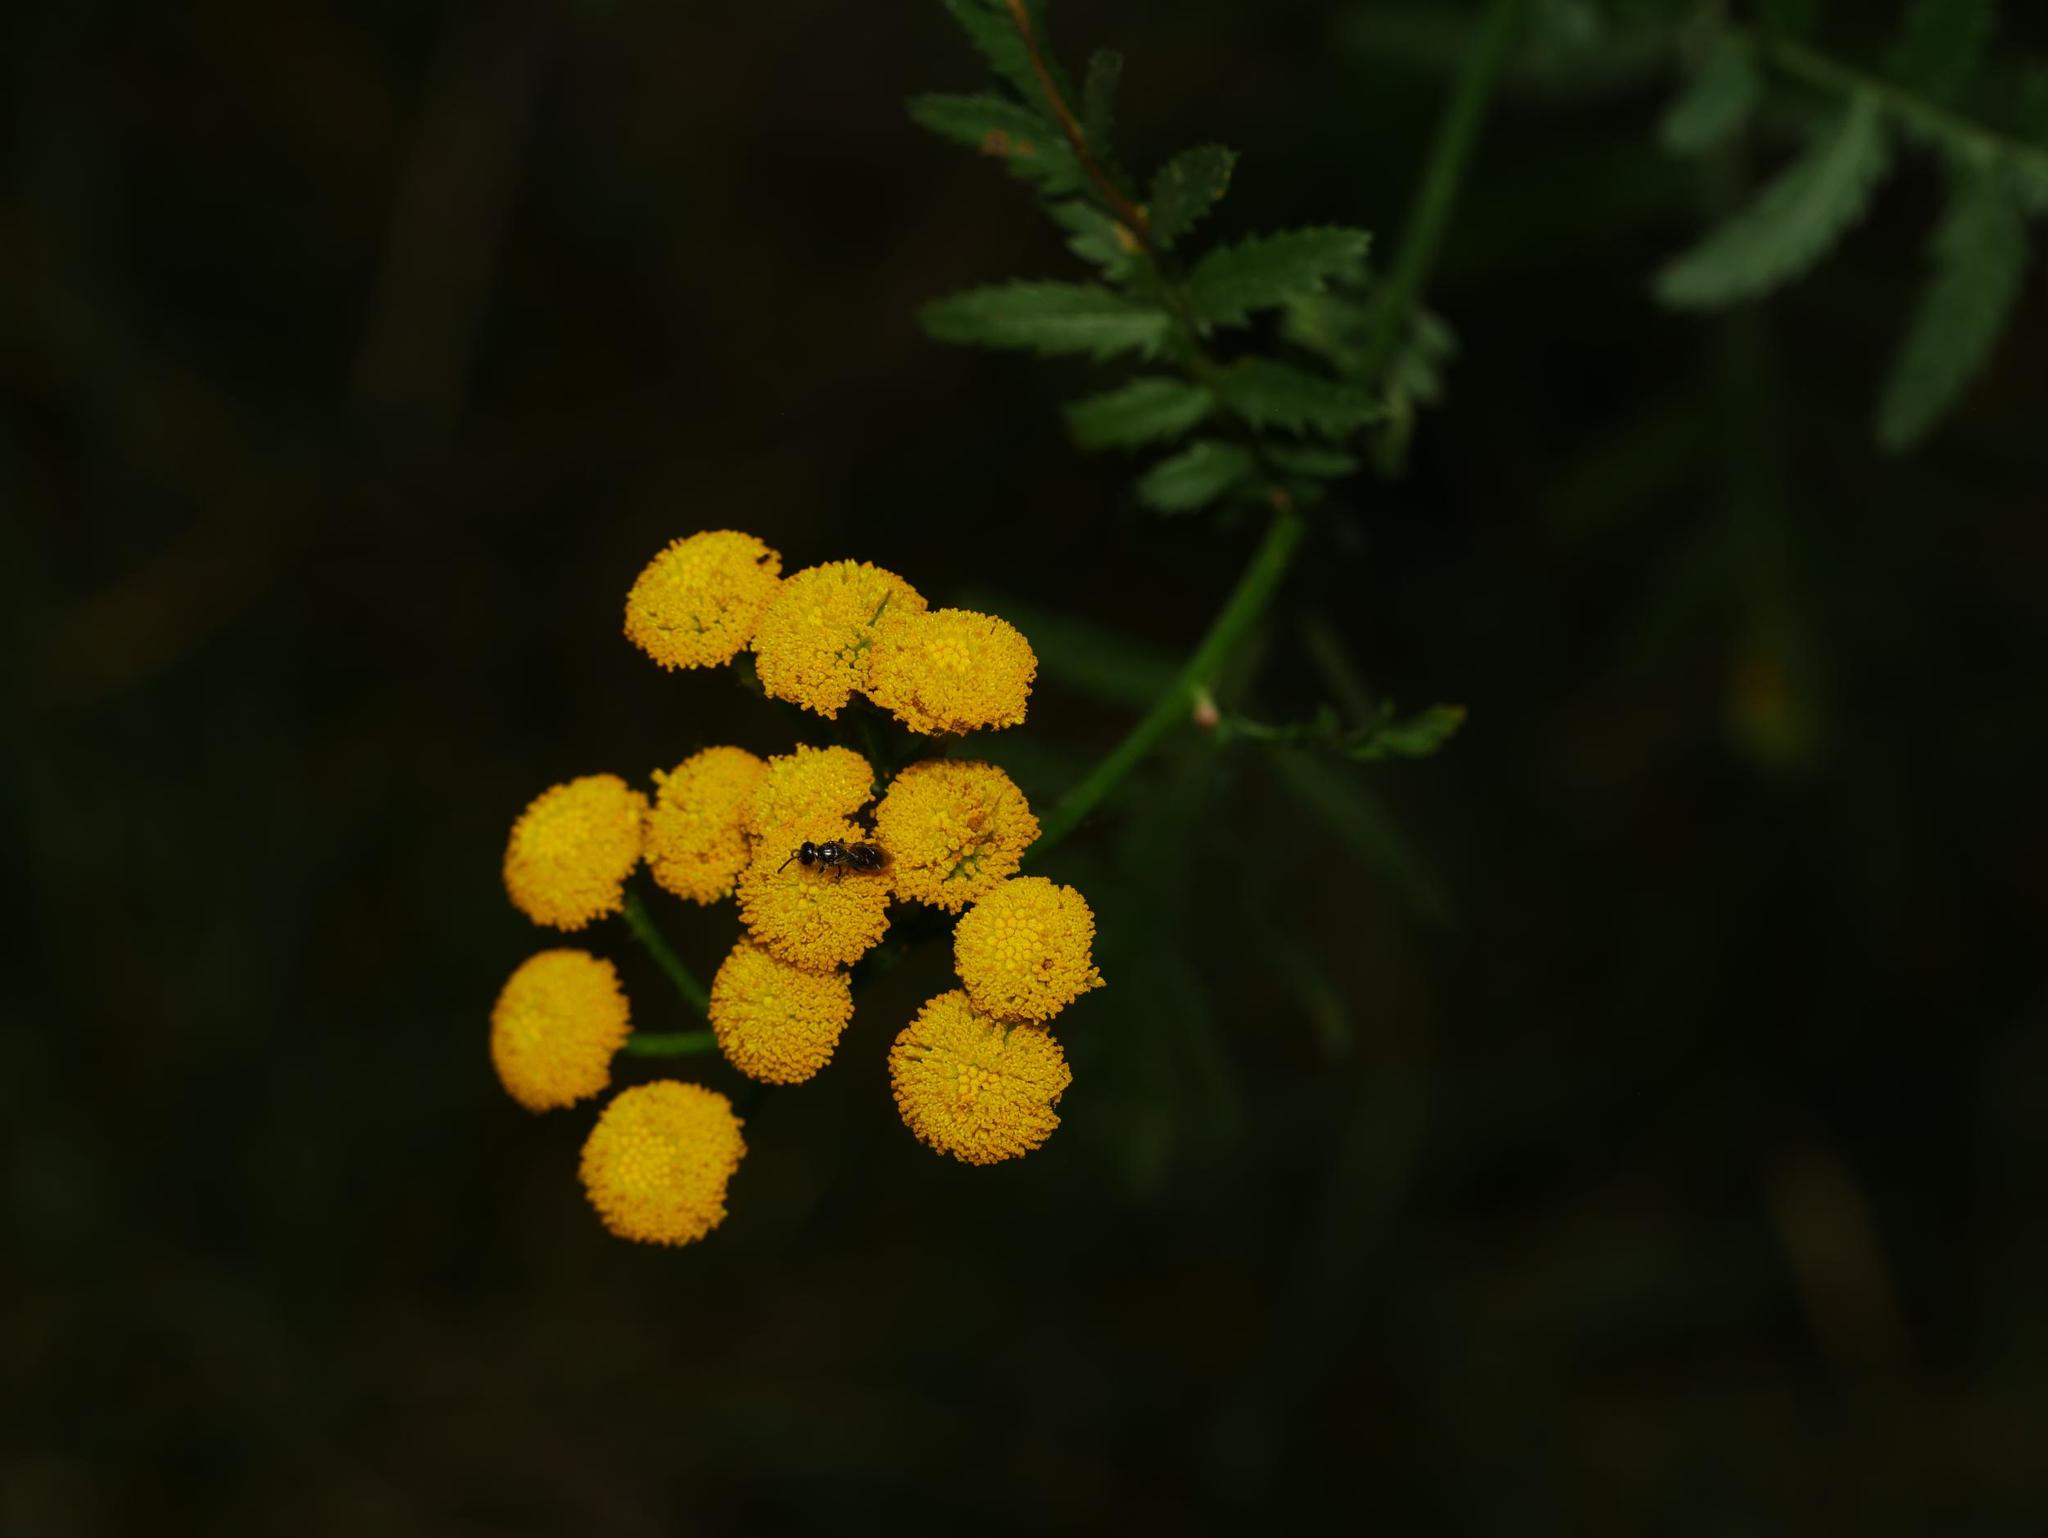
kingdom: Plantae
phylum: Tracheophyta
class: Magnoliopsida
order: Asterales
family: Asteraceae
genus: Tanacetum
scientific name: Tanacetum vulgare
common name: Common tansy
